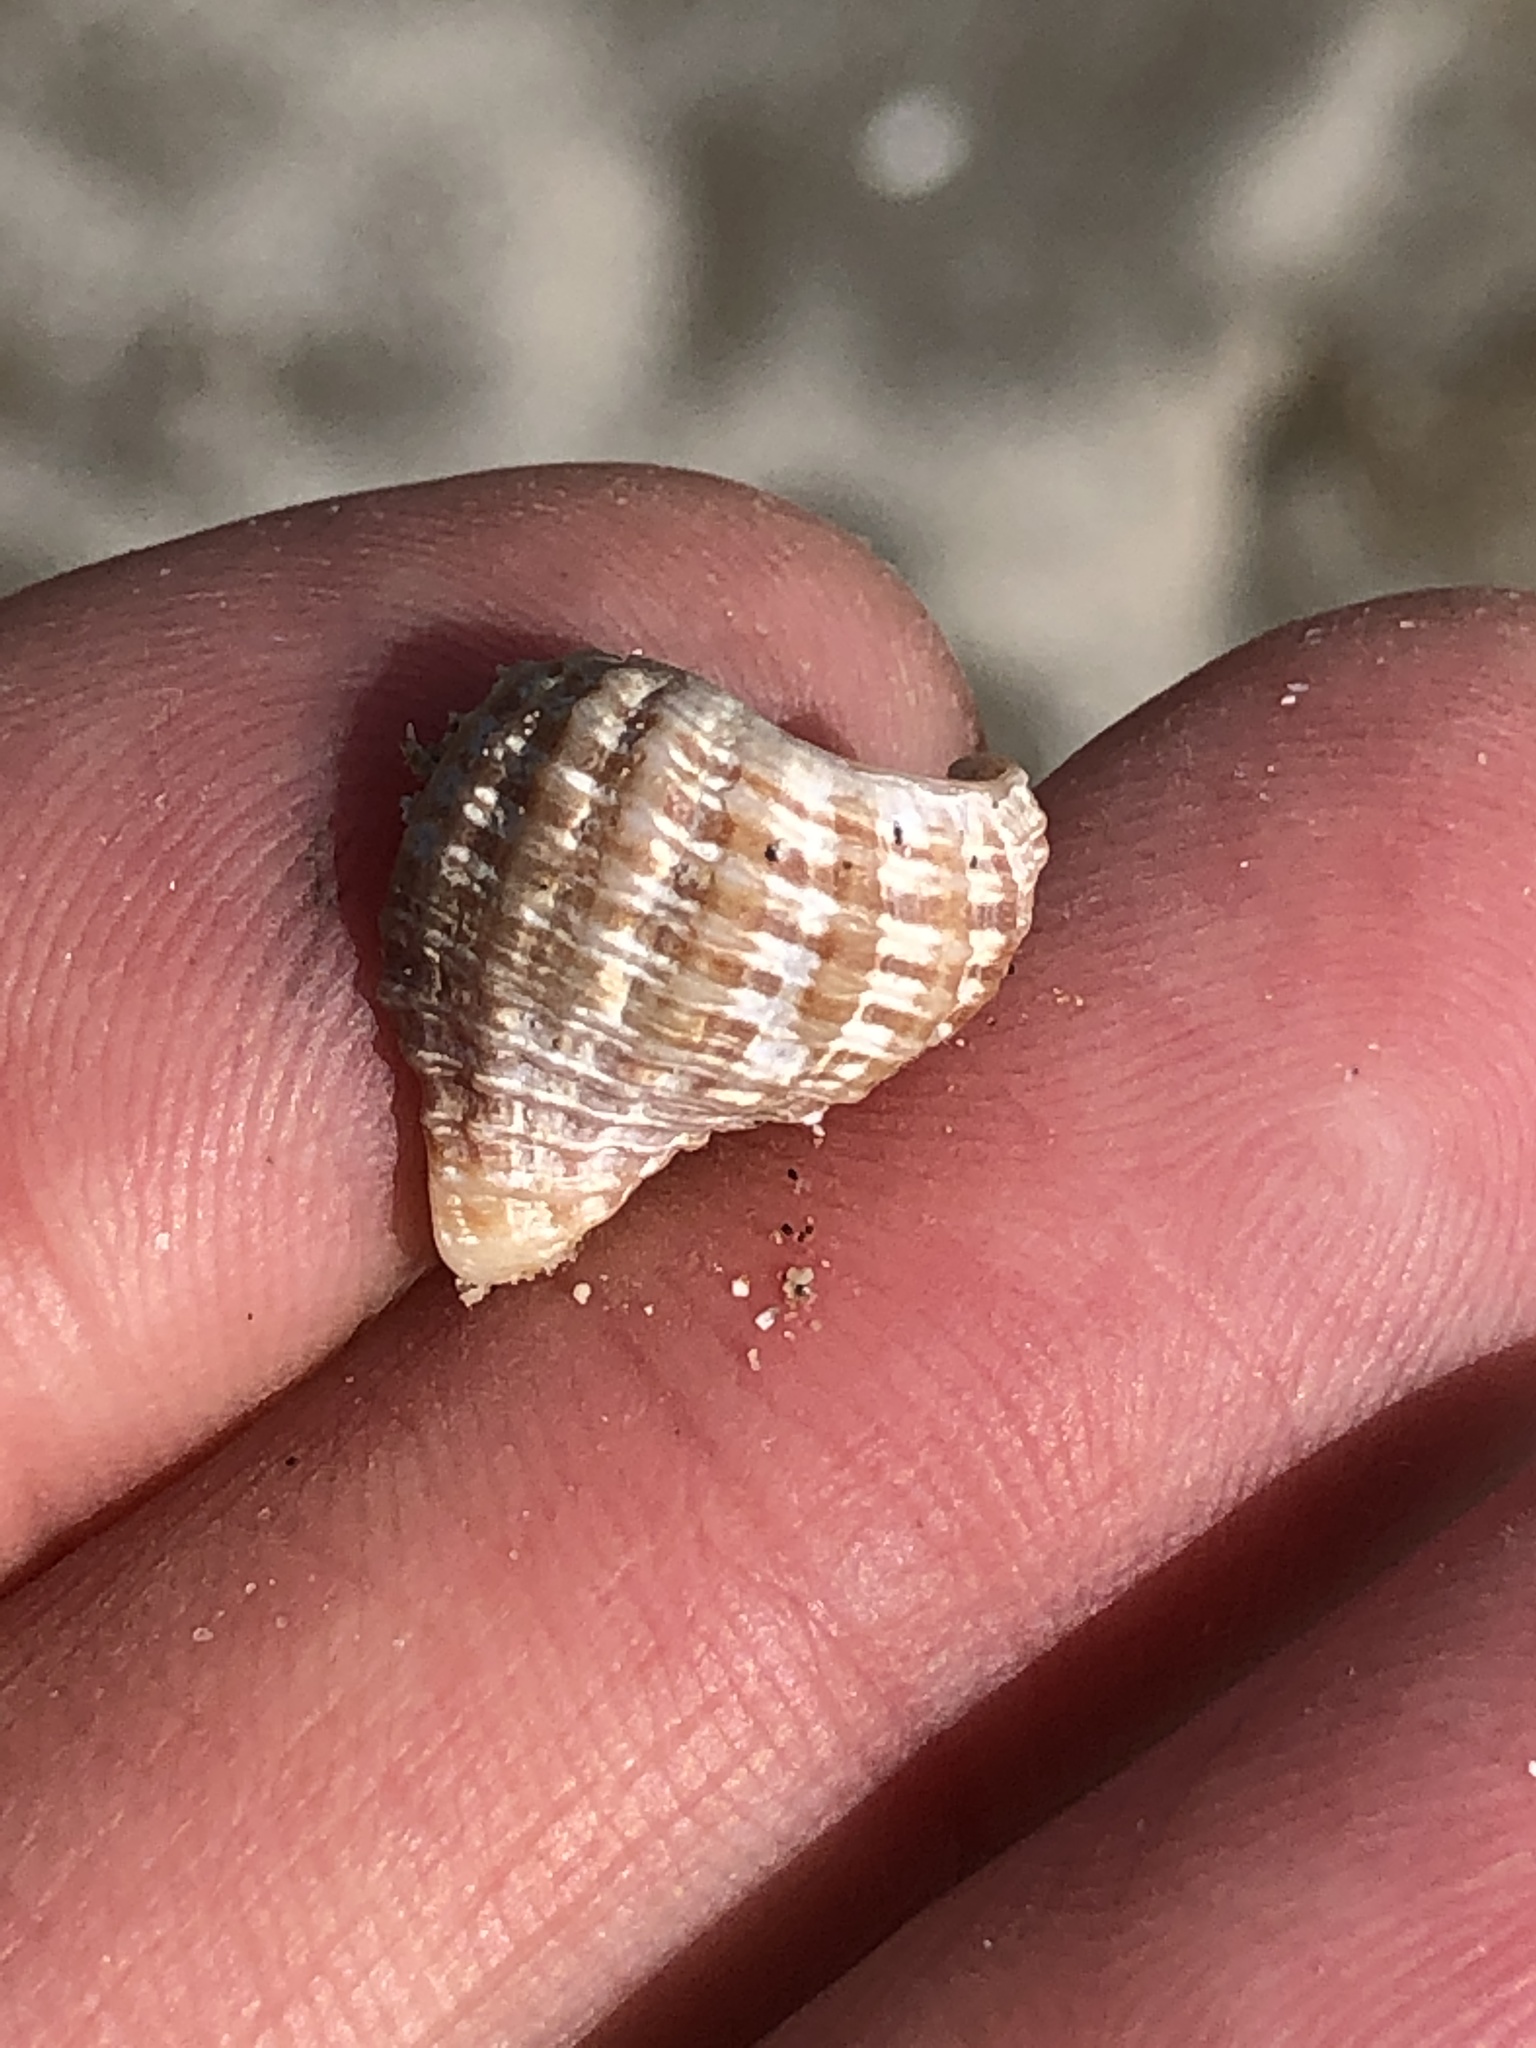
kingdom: Animalia
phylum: Mollusca
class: Gastropoda
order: Neogastropoda
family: Pisaniidae
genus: Solenosteira
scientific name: Solenosteira cancellaria
